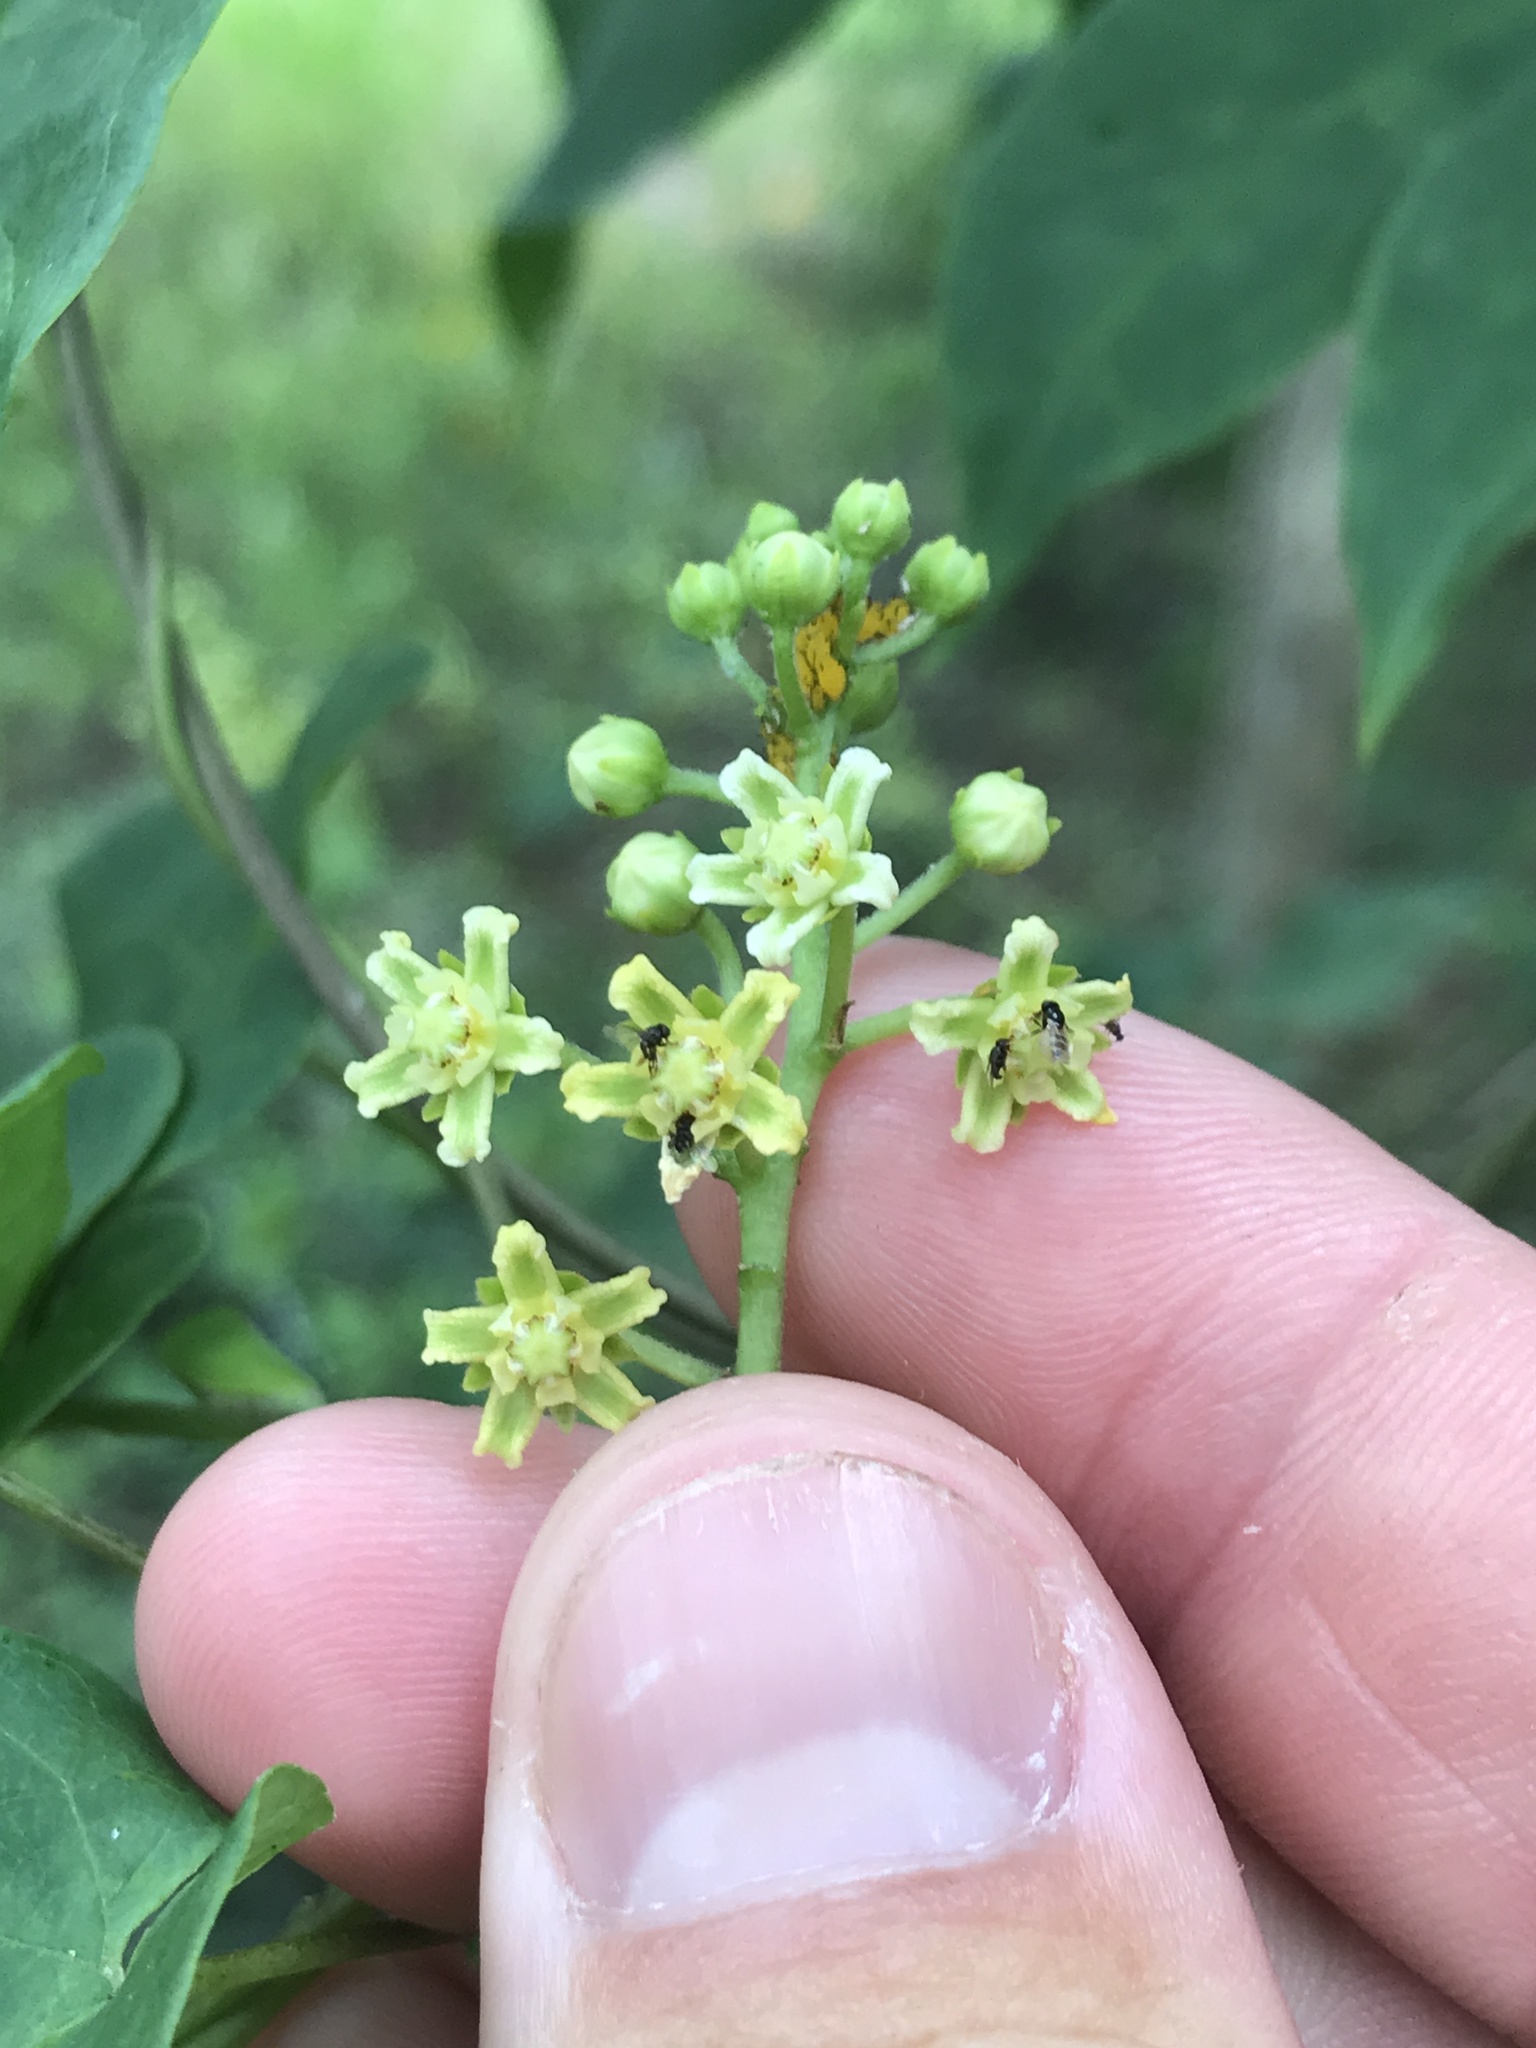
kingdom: Plantae
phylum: Tracheophyta
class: Magnoliopsida
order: Gentianales
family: Apocynaceae
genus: Cynanchum
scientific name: Cynanchum racemosum
